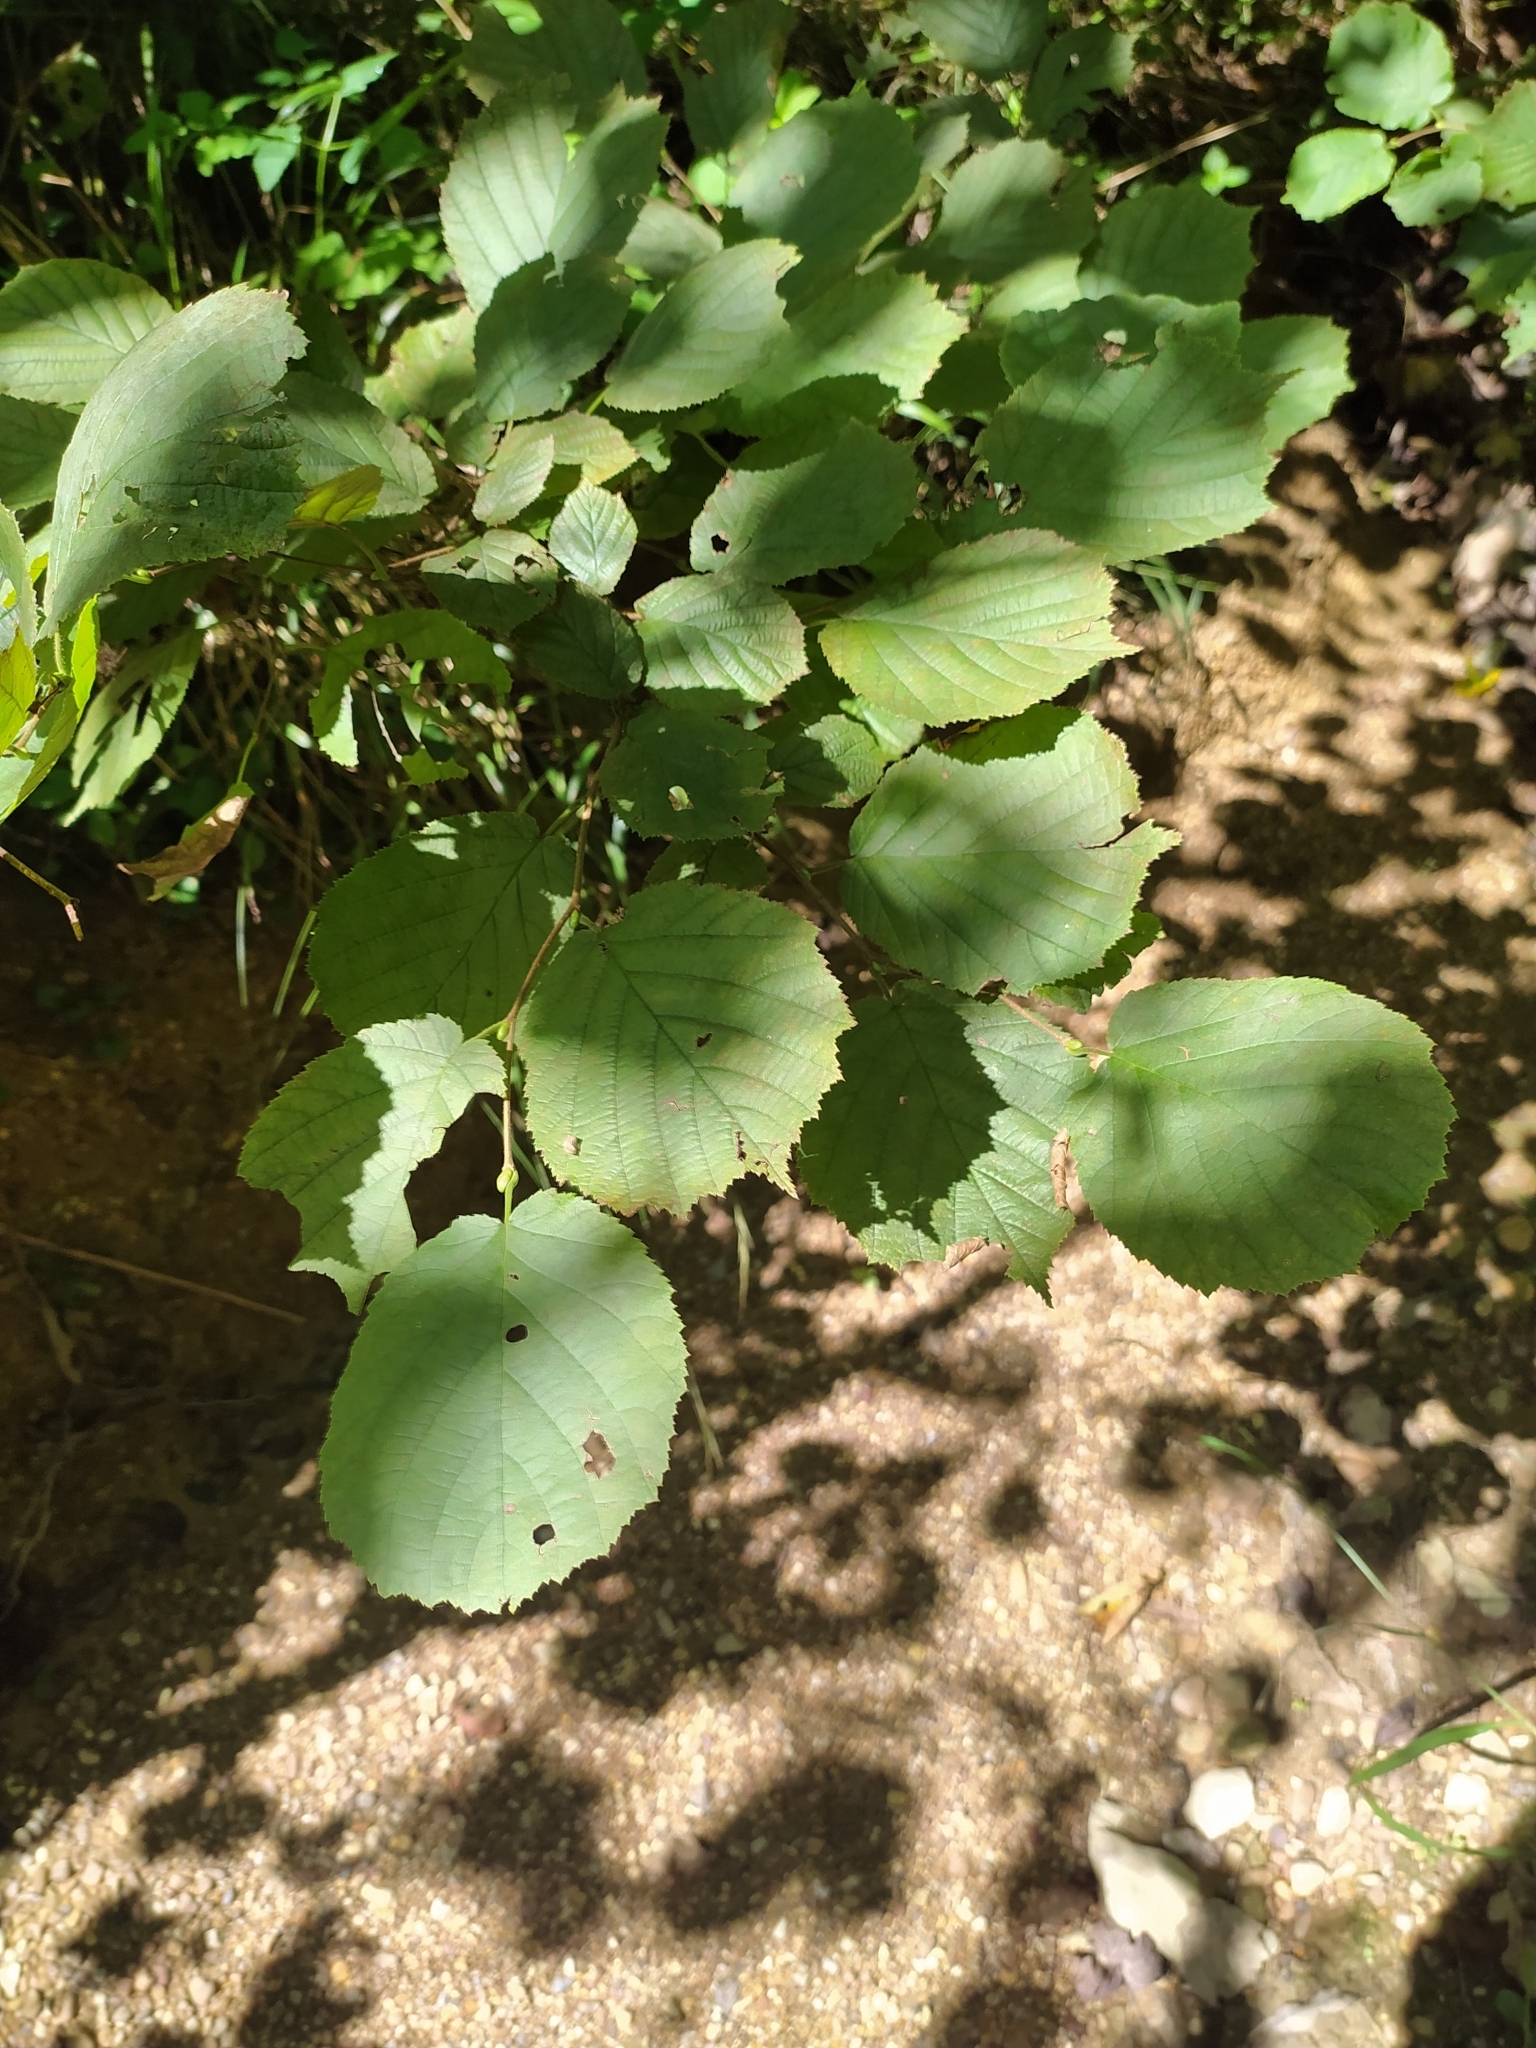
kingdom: Plantae
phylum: Tracheophyta
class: Magnoliopsida
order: Fagales
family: Betulaceae
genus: Corylus
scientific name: Corylus avellana
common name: European hazel
